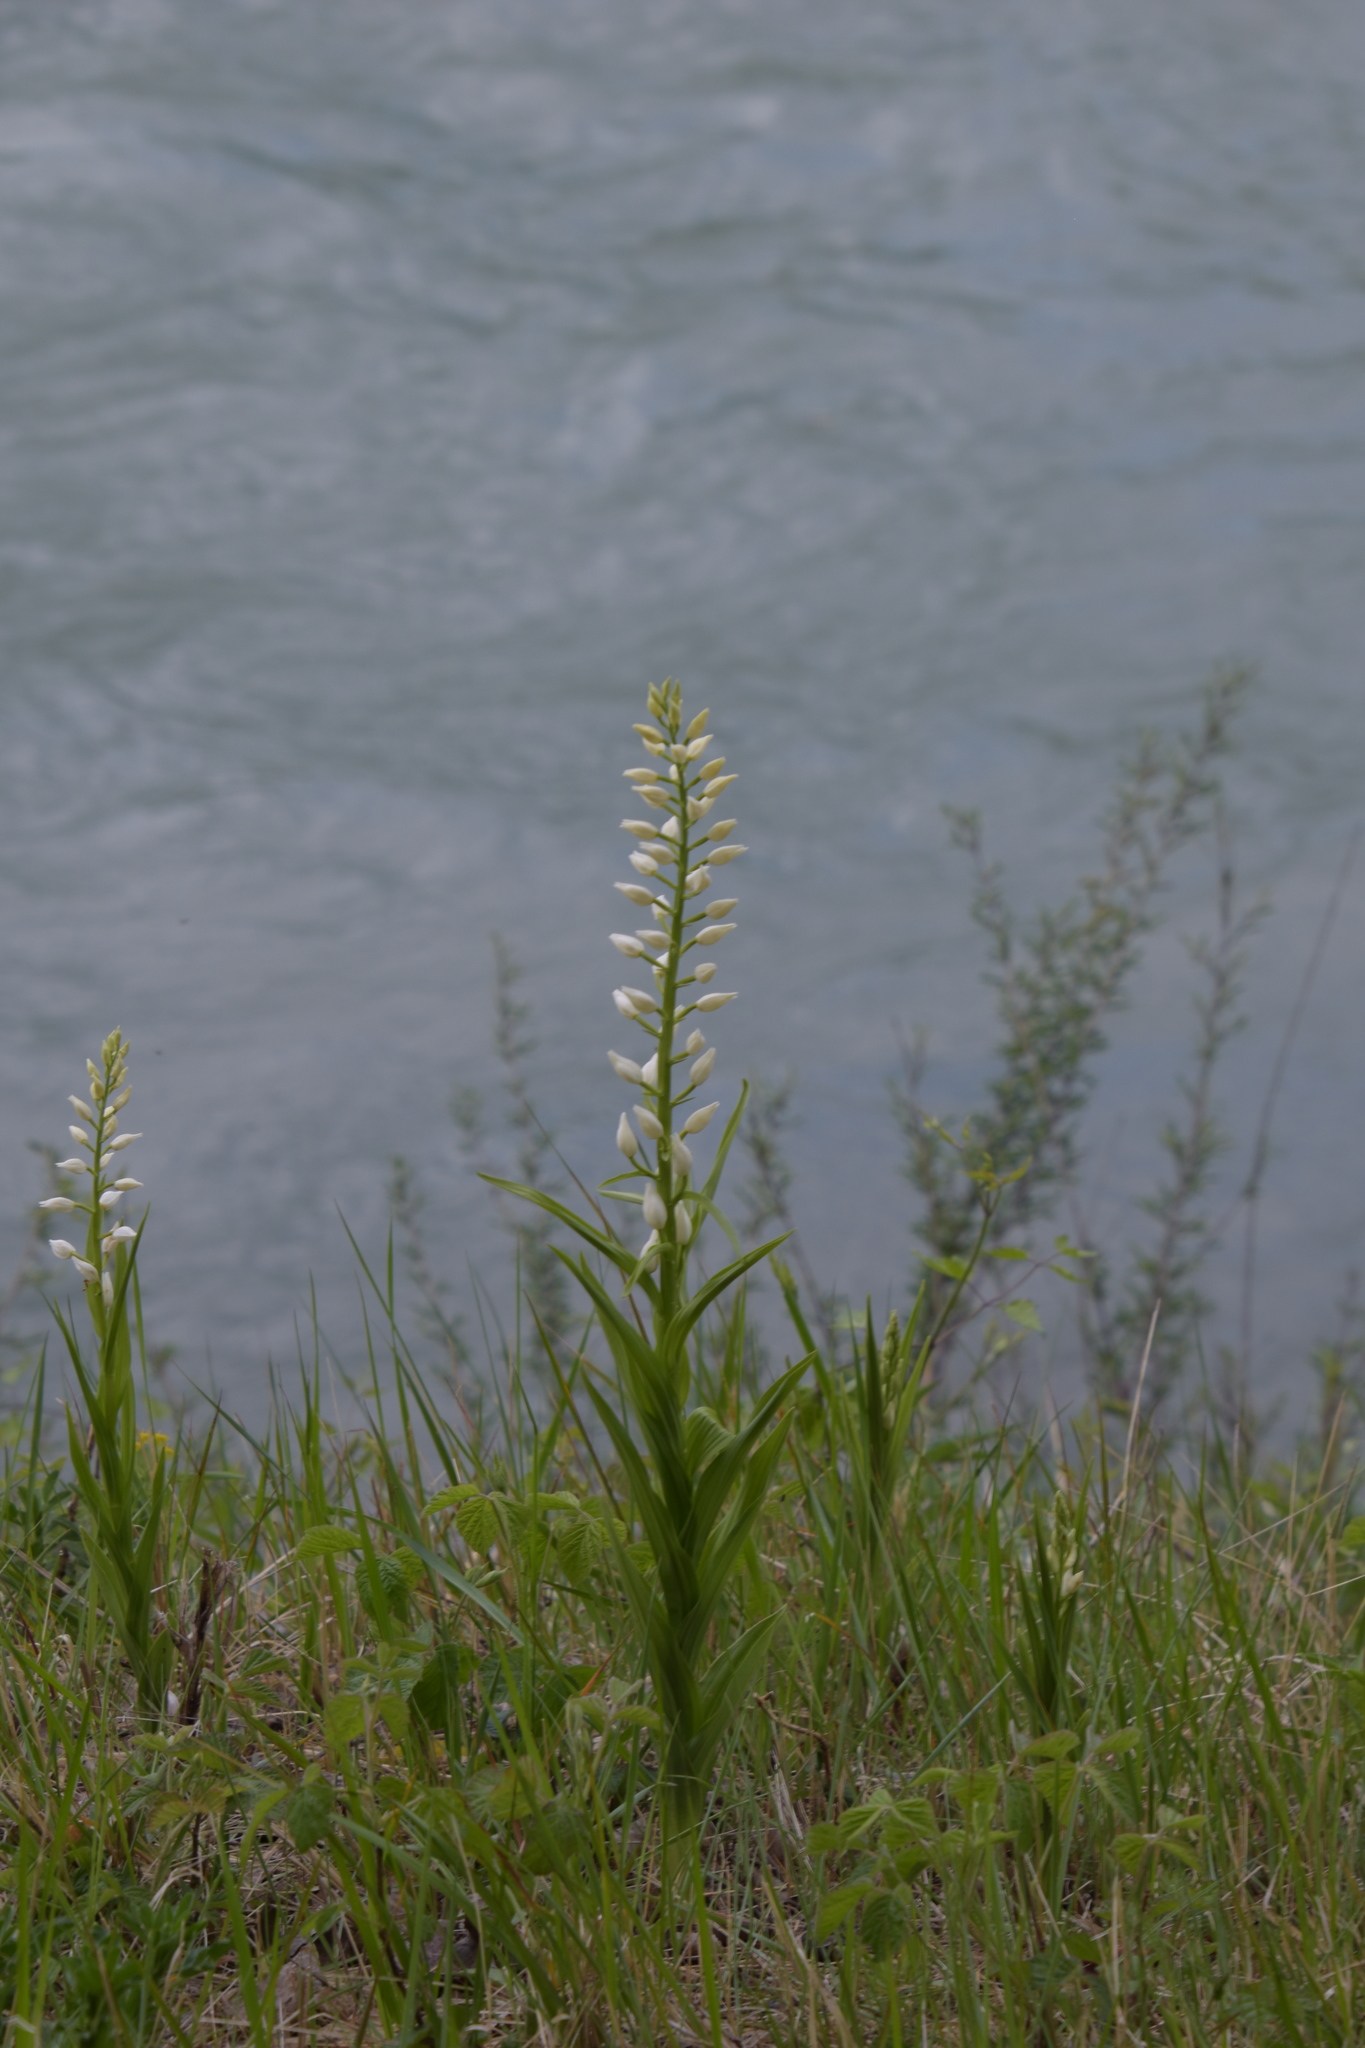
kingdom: Plantae
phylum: Tracheophyta
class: Liliopsida
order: Asparagales
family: Orchidaceae
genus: Cephalanthera
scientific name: Cephalanthera longifolia
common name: Narrow-leaved helleborine
